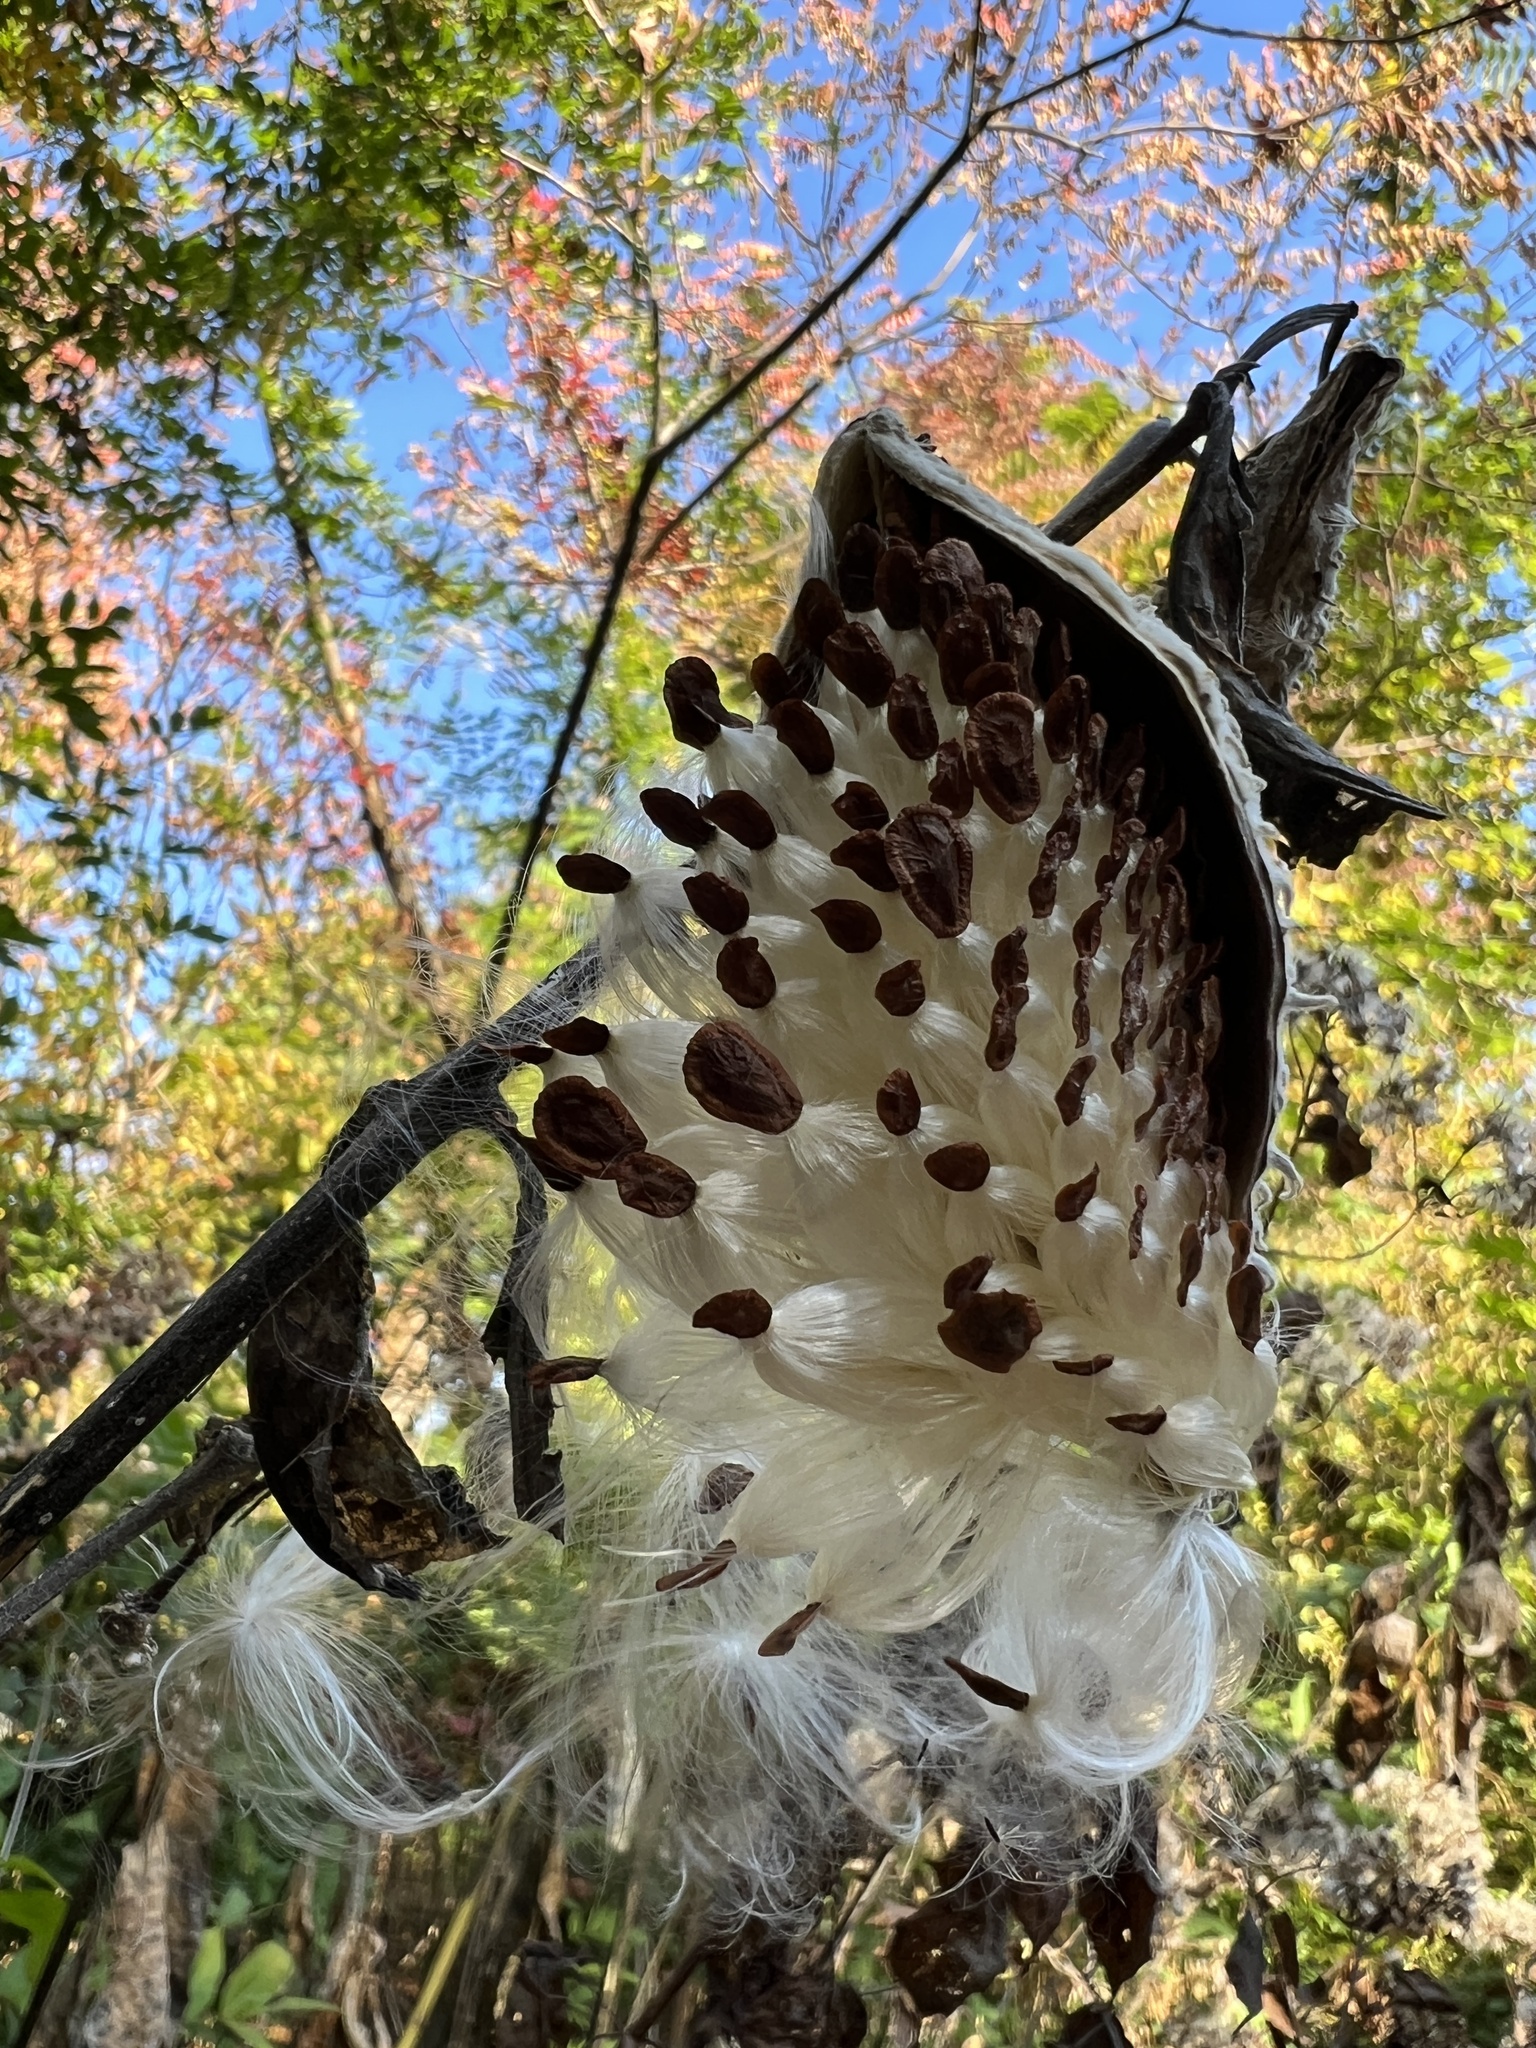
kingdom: Plantae
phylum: Tracheophyta
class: Magnoliopsida
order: Gentianales
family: Apocynaceae
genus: Asclepias
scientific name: Asclepias syriaca
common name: Common milkweed
